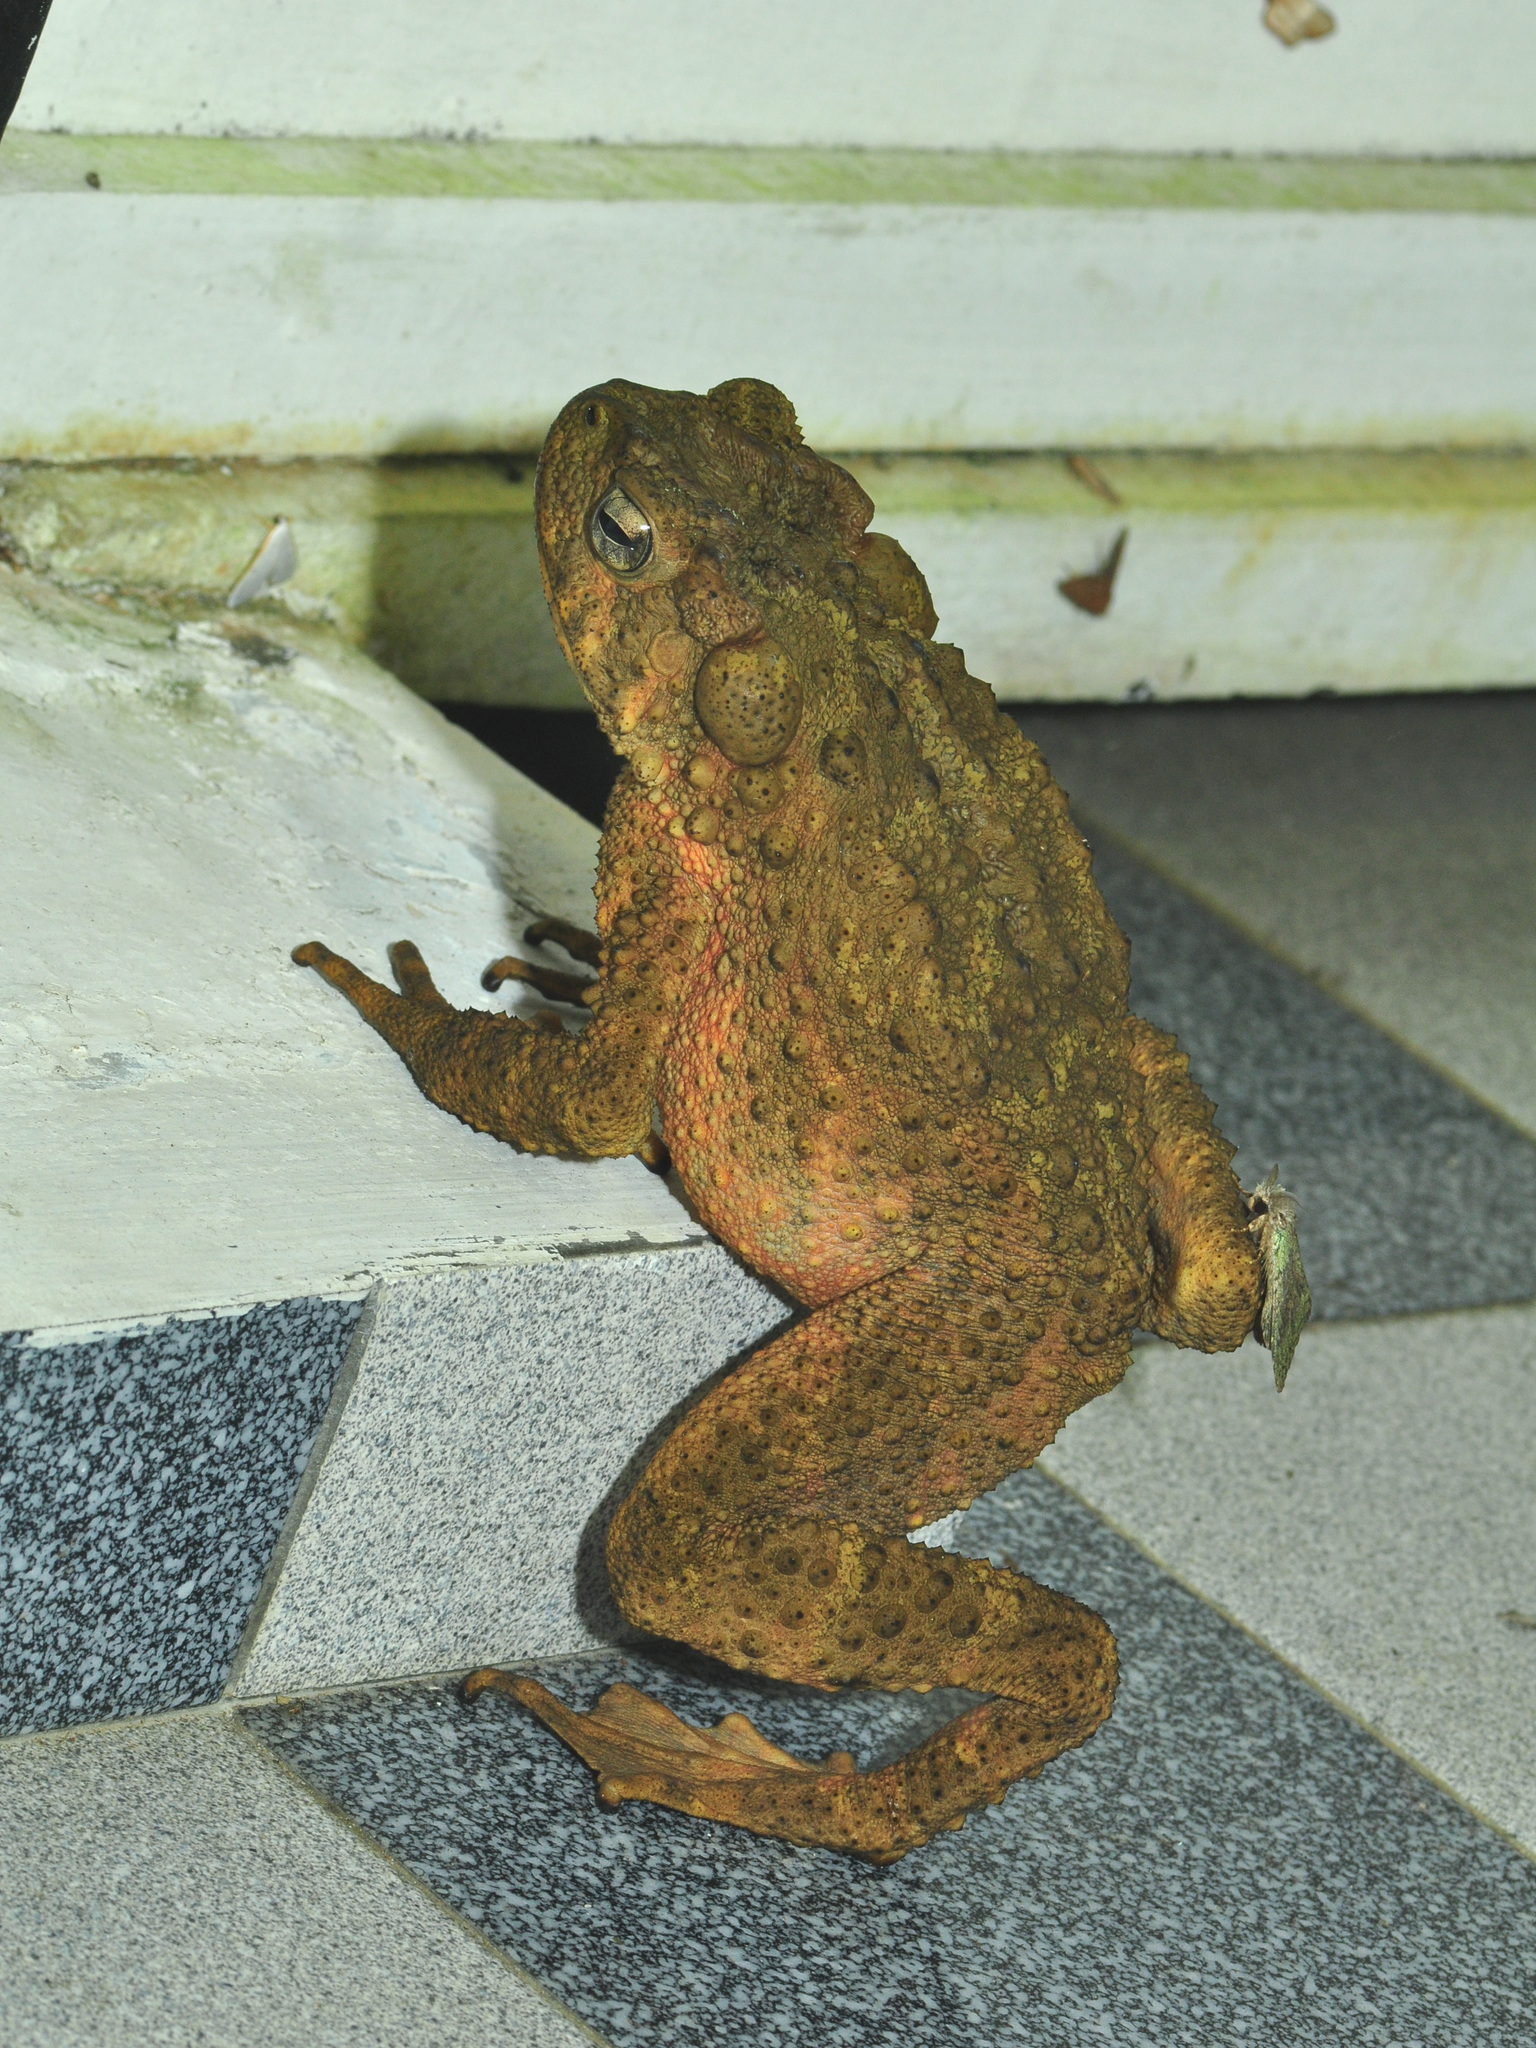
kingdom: Animalia
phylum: Chordata
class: Amphibia
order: Anura
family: Bufonidae
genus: Phrynoidis
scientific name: Phrynoidis asper
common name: Asian giant toad
